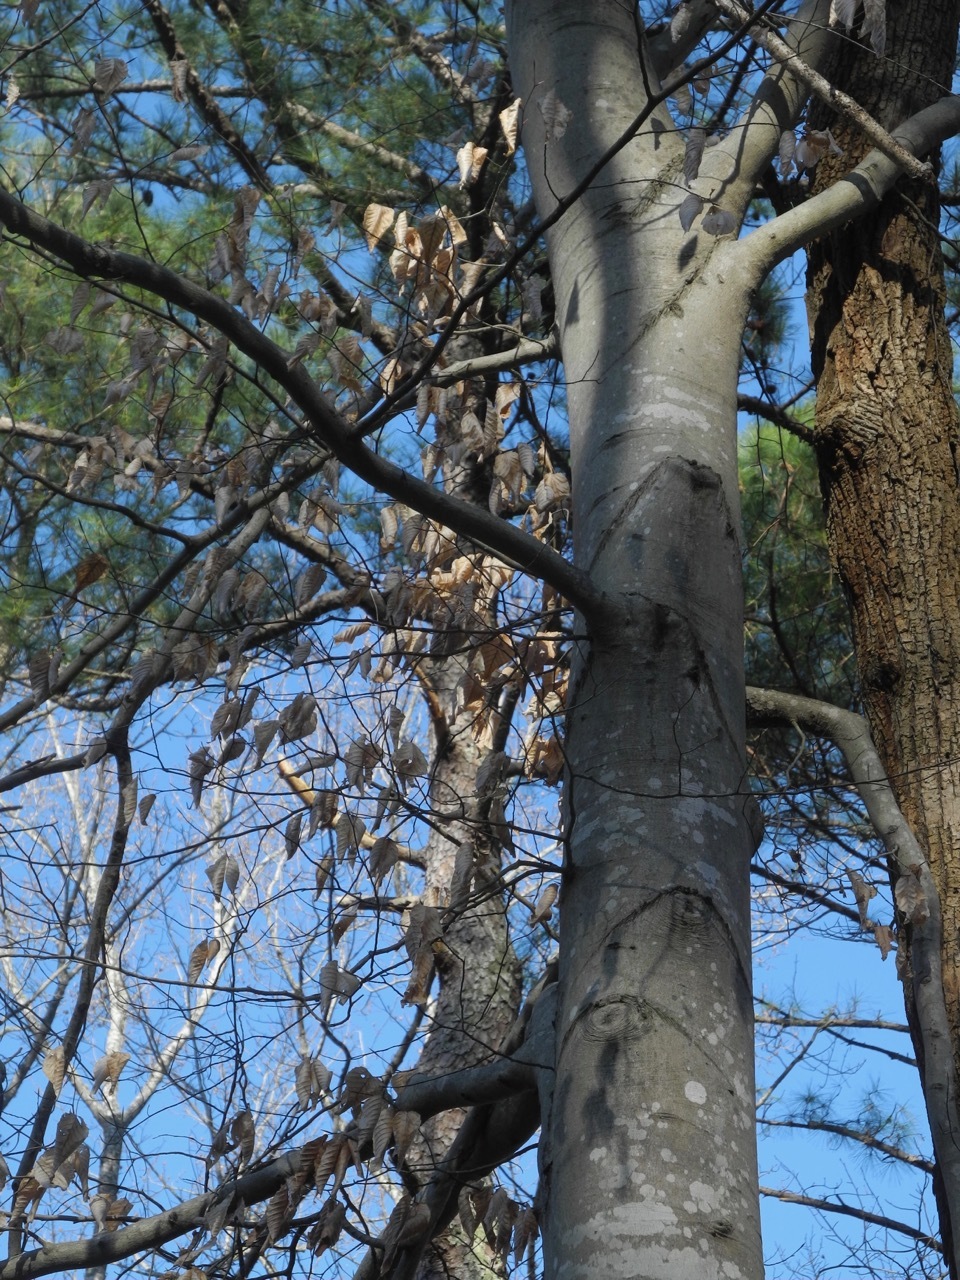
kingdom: Plantae
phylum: Tracheophyta
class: Magnoliopsida
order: Fagales
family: Fagaceae
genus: Fagus
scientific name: Fagus grandifolia
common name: American beech
